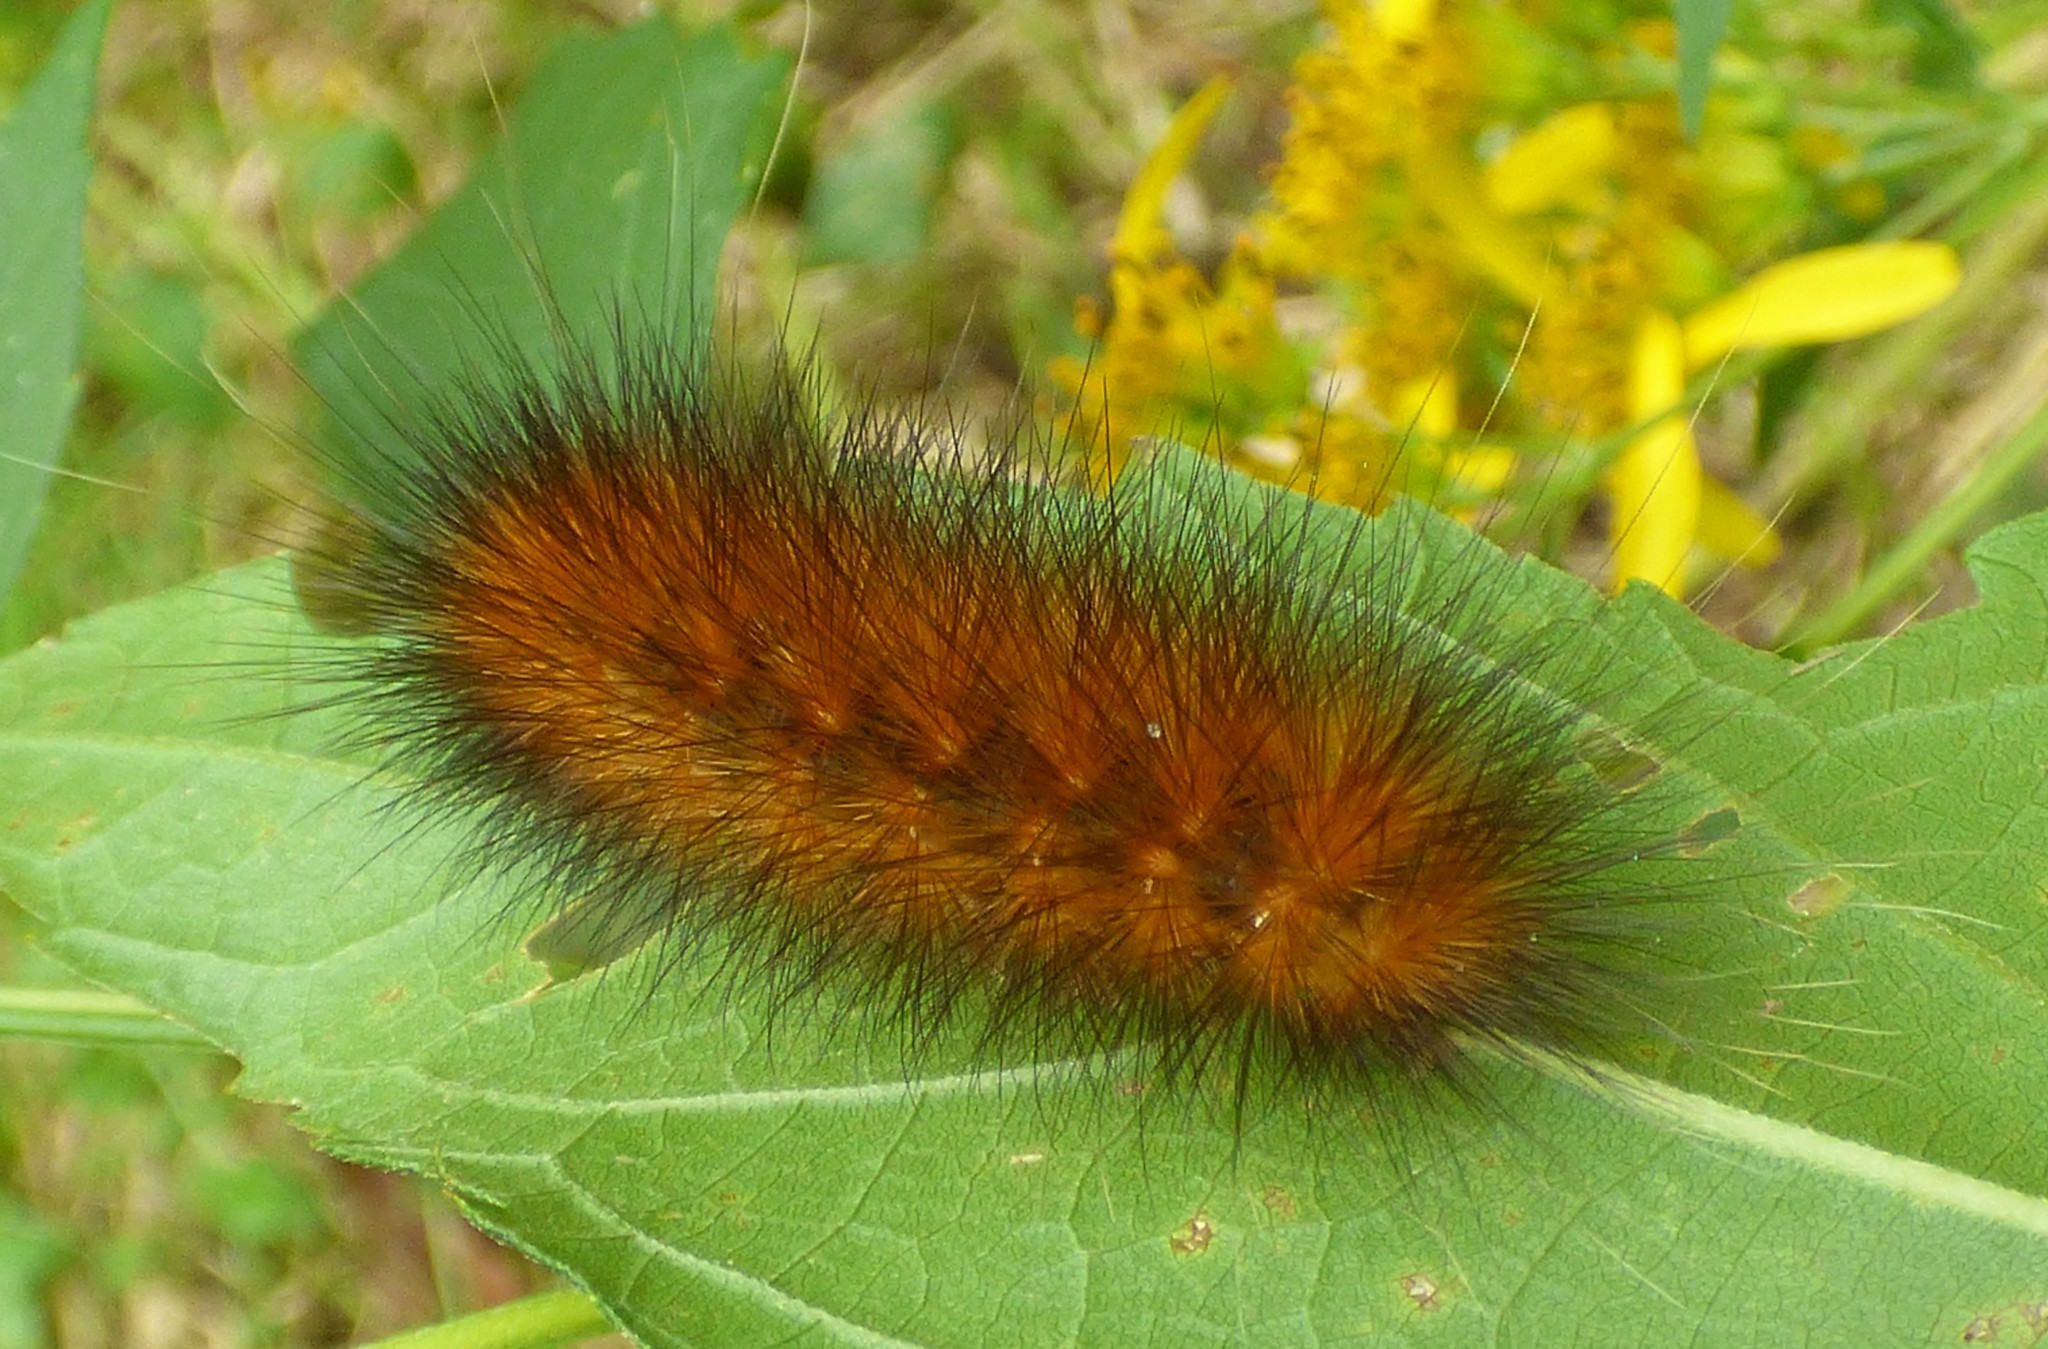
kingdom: Animalia
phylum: Arthropoda
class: Insecta
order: Lepidoptera
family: Erebidae
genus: Spilosoma
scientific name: Spilosoma virginica
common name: Virginia tiger moth
